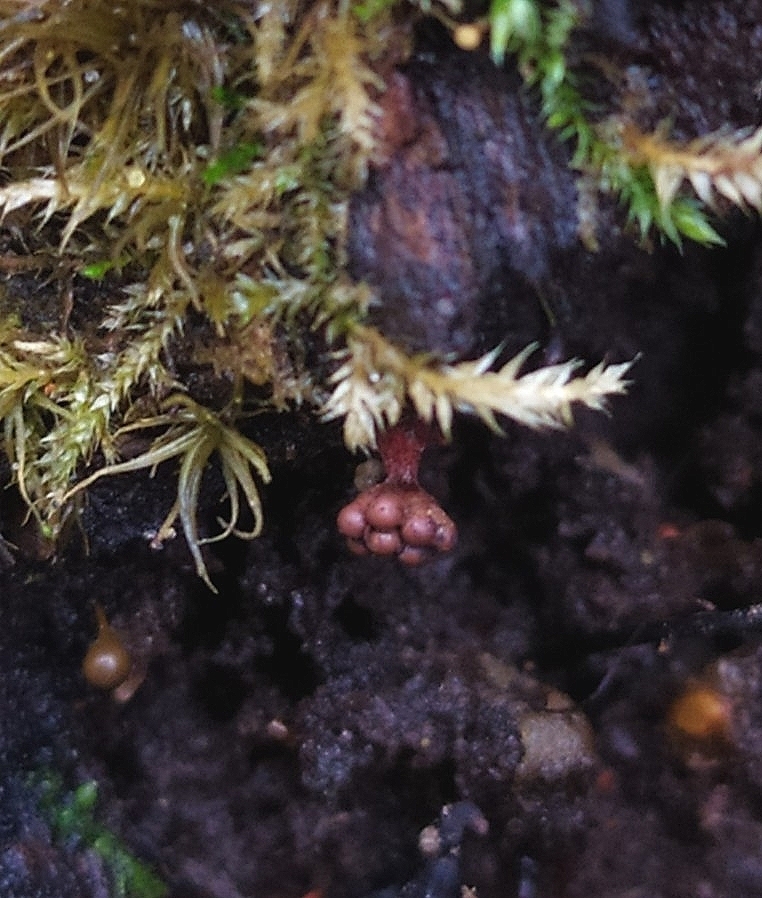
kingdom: Protozoa
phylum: Mycetozoa
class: Myxomycetes
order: Trichiales
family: Trichiaceae
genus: Metatrichia
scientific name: Metatrichia vesparia
